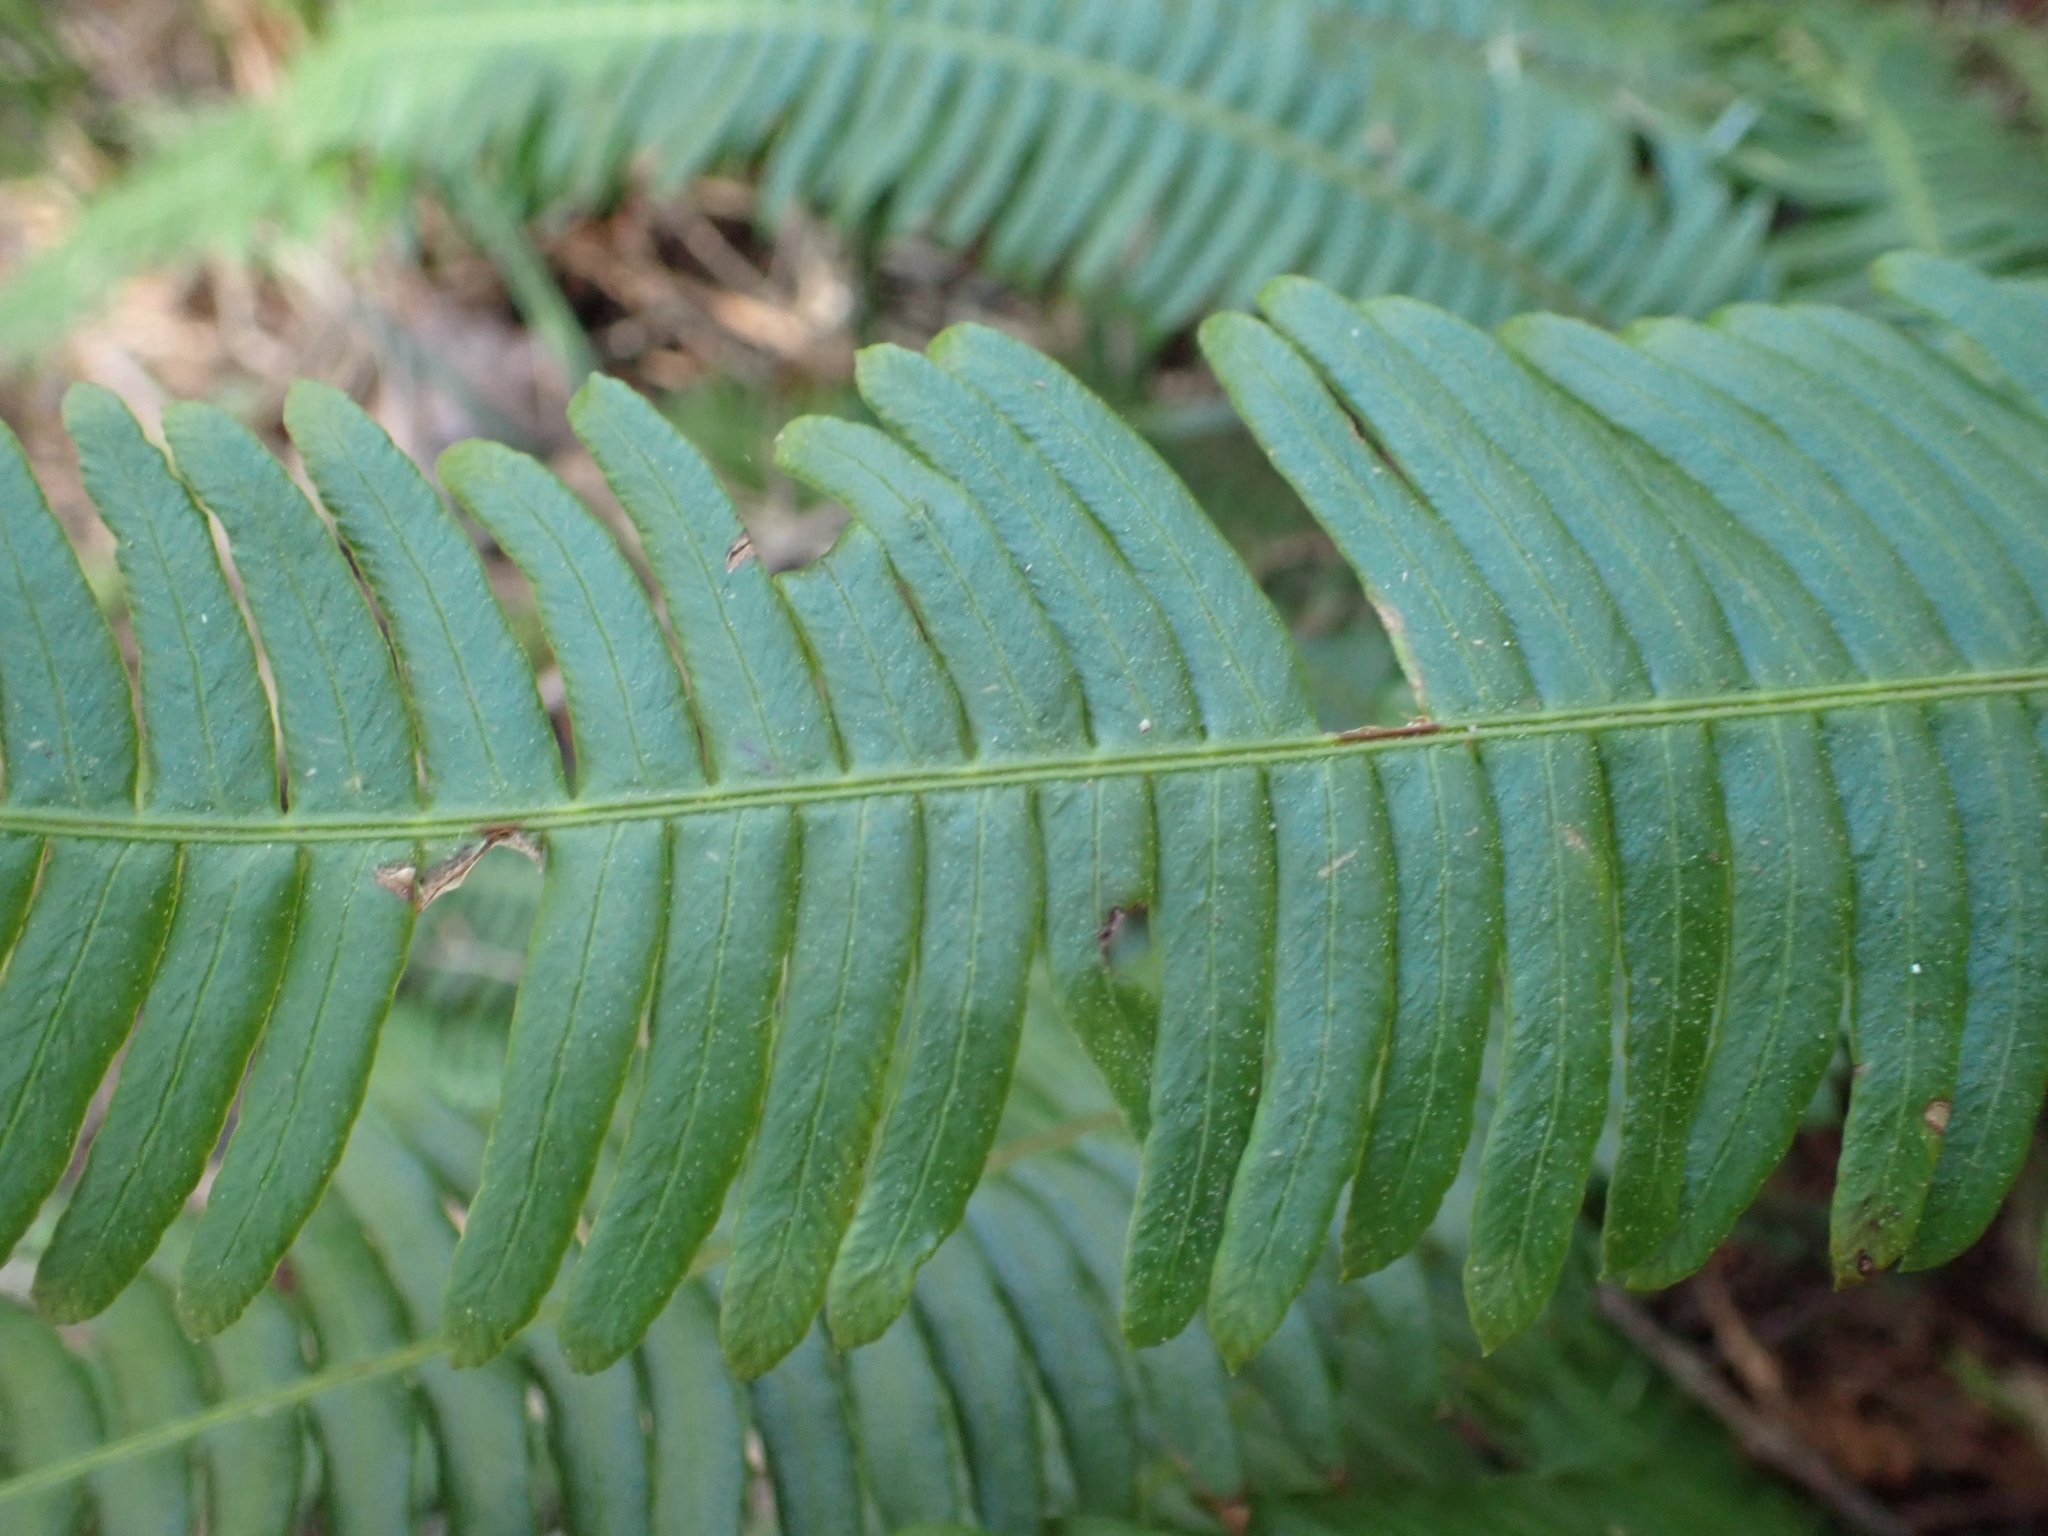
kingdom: Plantae
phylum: Tracheophyta
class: Polypodiopsida
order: Polypodiales
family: Blechnaceae
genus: Struthiopteris
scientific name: Struthiopteris spicant
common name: Deer fern
